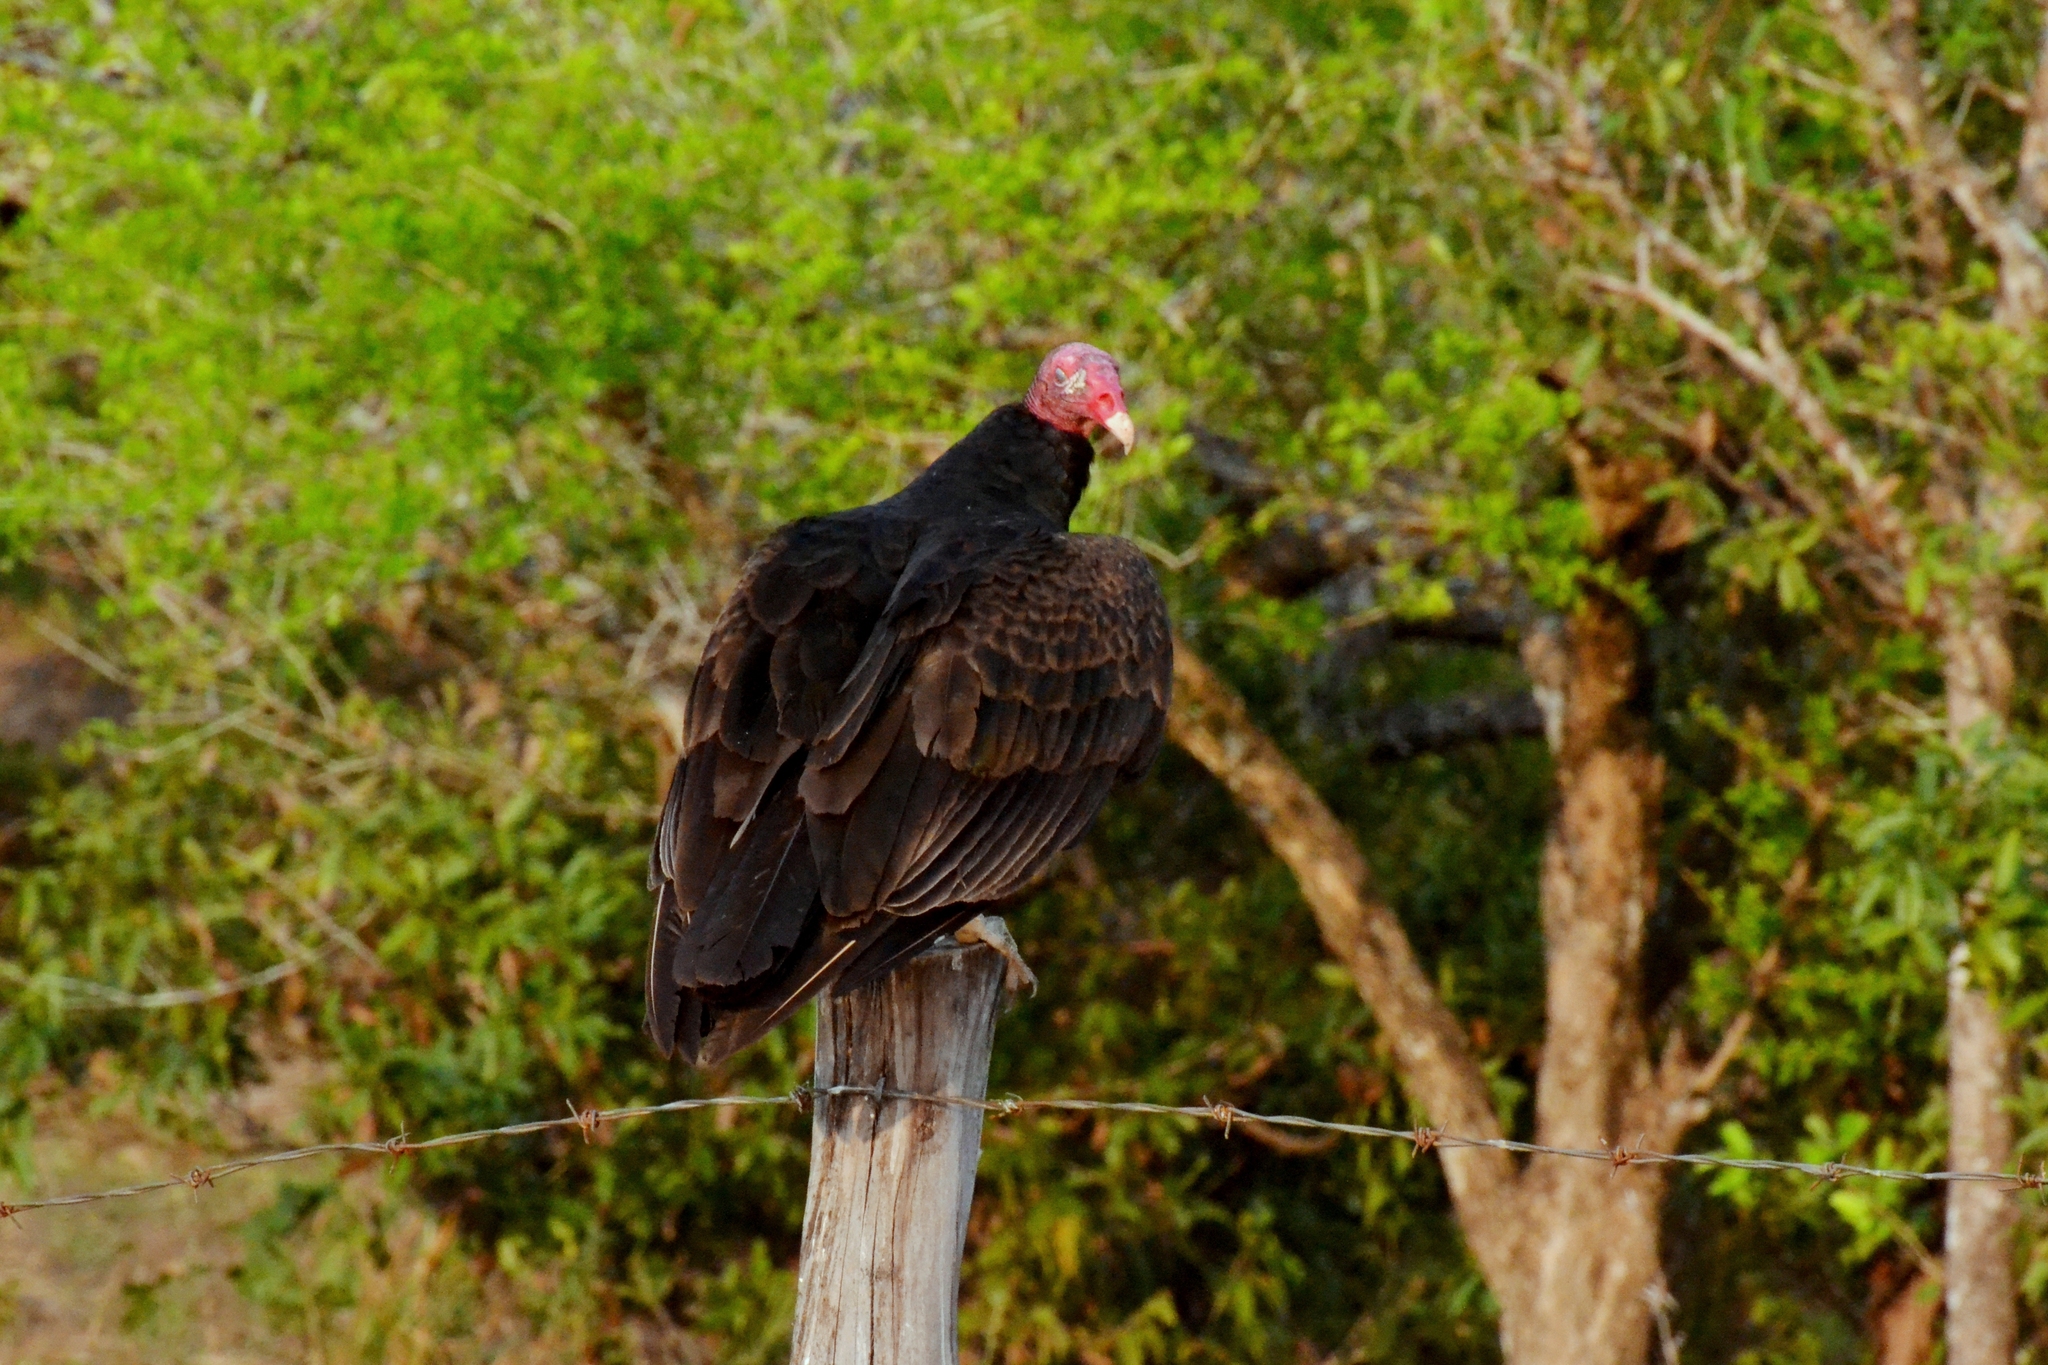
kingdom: Animalia
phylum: Chordata
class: Aves
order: Accipitriformes
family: Cathartidae
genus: Cathartes
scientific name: Cathartes aura
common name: Turkey vulture
